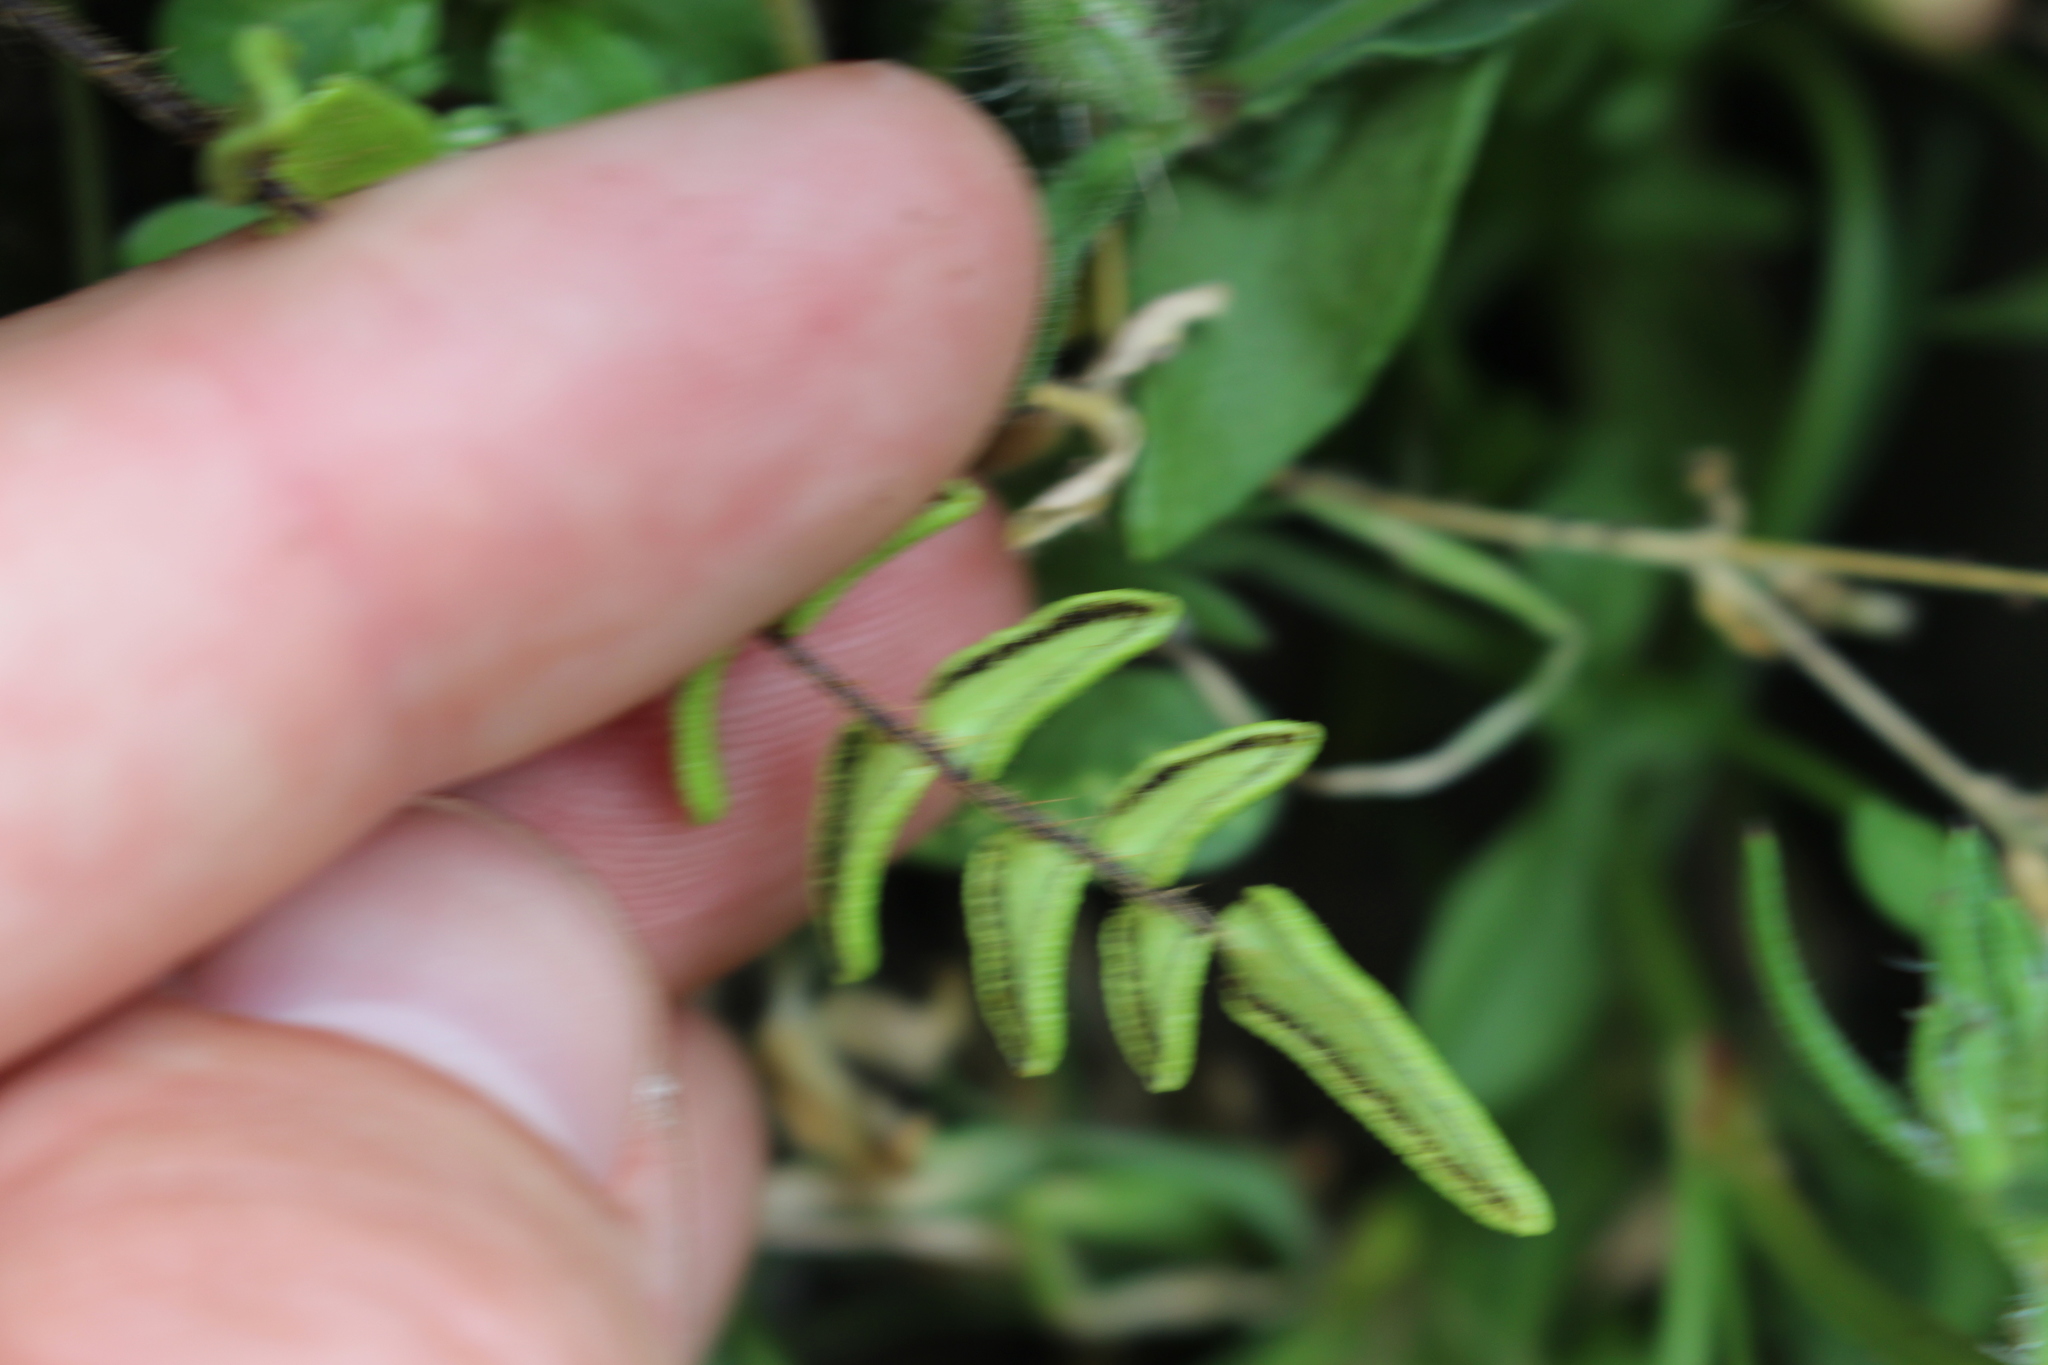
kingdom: Plantae
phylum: Tracheophyta
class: Polypodiopsida
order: Polypodiales
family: Pteridaceae
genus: Pellaea
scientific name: Pellaea calidirupium
